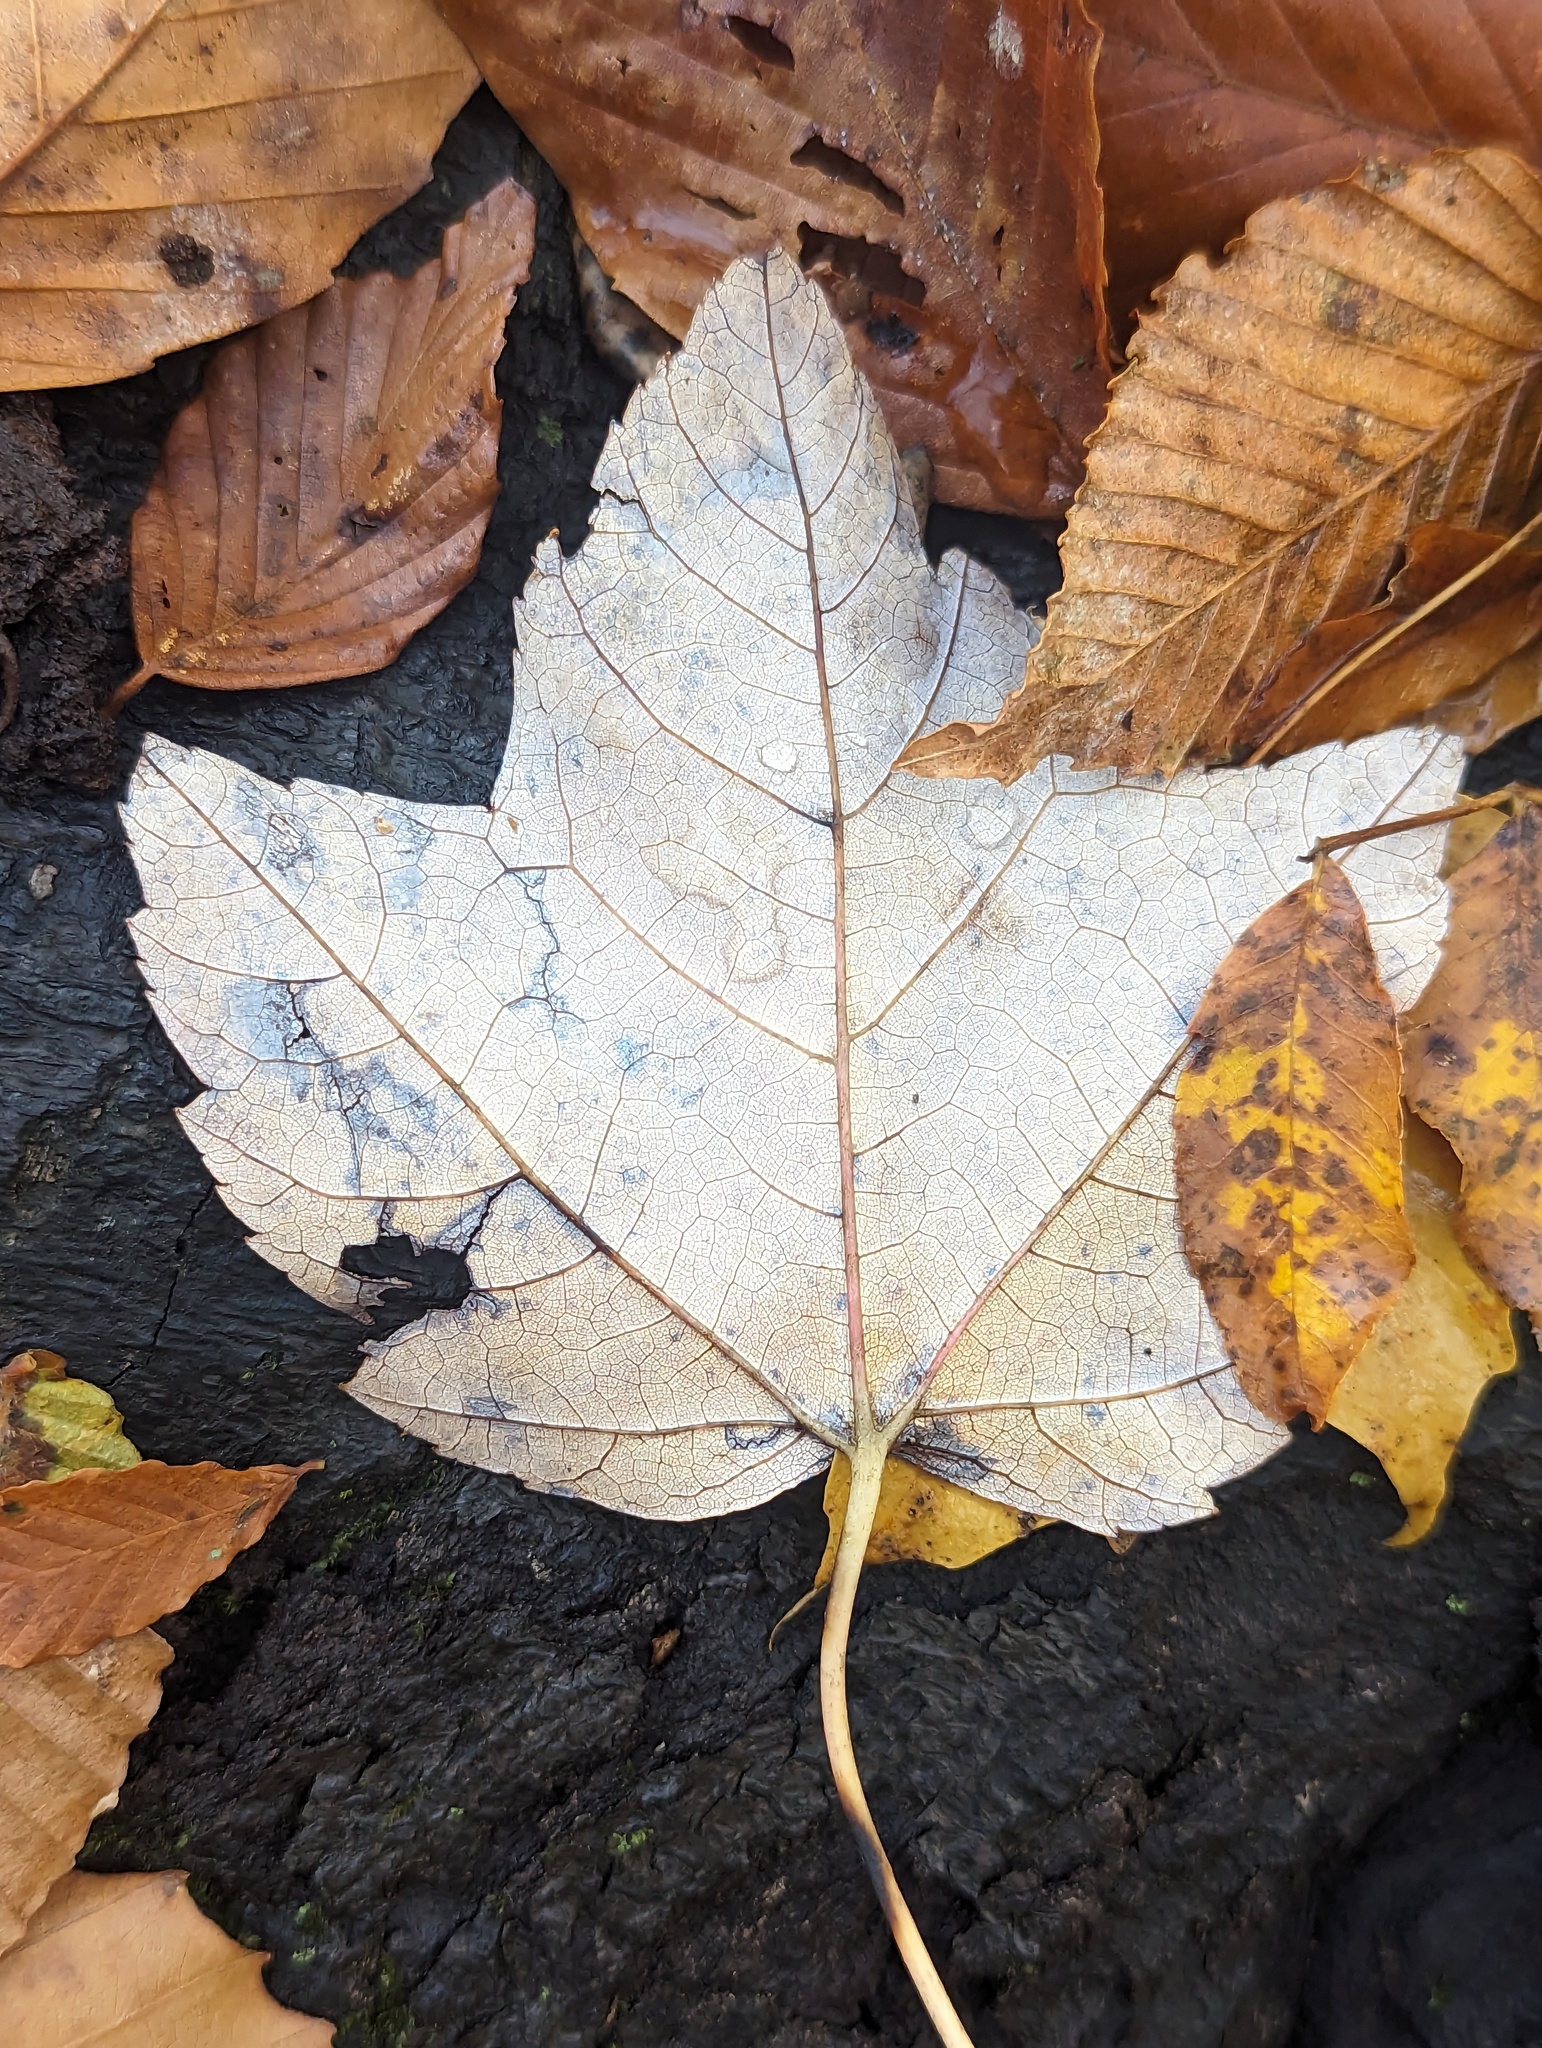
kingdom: Plantae
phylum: Tracheophyta
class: Magnoliopsida
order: Sapindales
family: Sapindaceae
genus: Acer
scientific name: Acer rubrum
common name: Red maple
